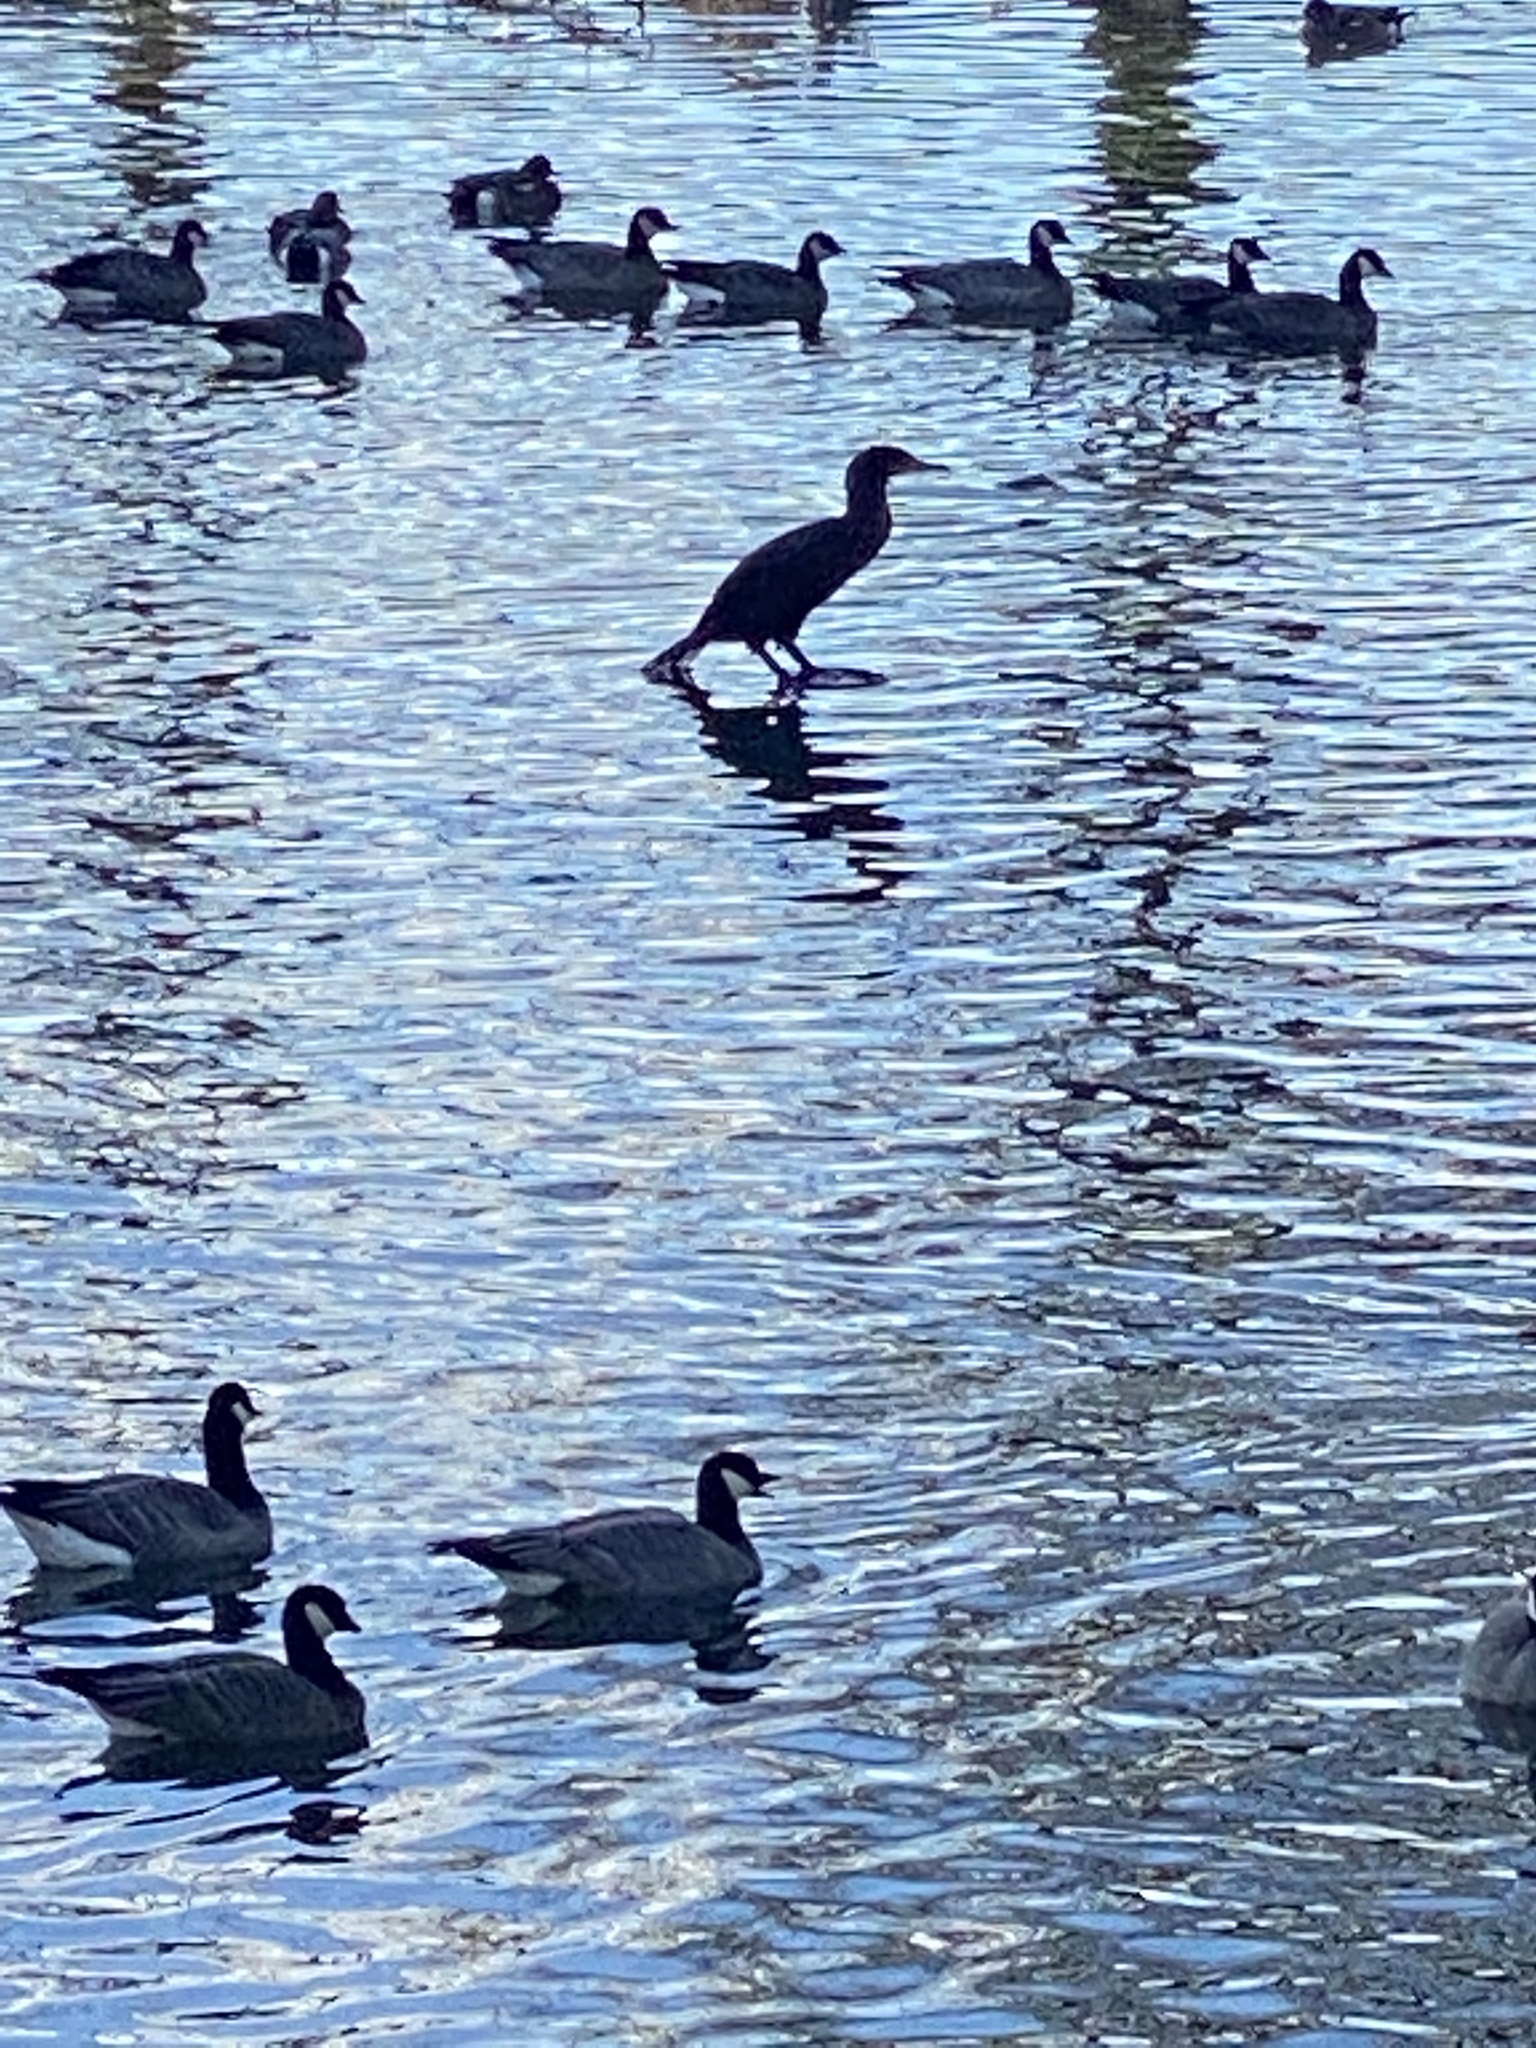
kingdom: Animalia
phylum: Chordata
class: Aves
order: Suliformes
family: Phalacrocoracidae
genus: Phalacrocorax
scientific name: Phalacrocorax auritus
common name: Double-crested cormorant
